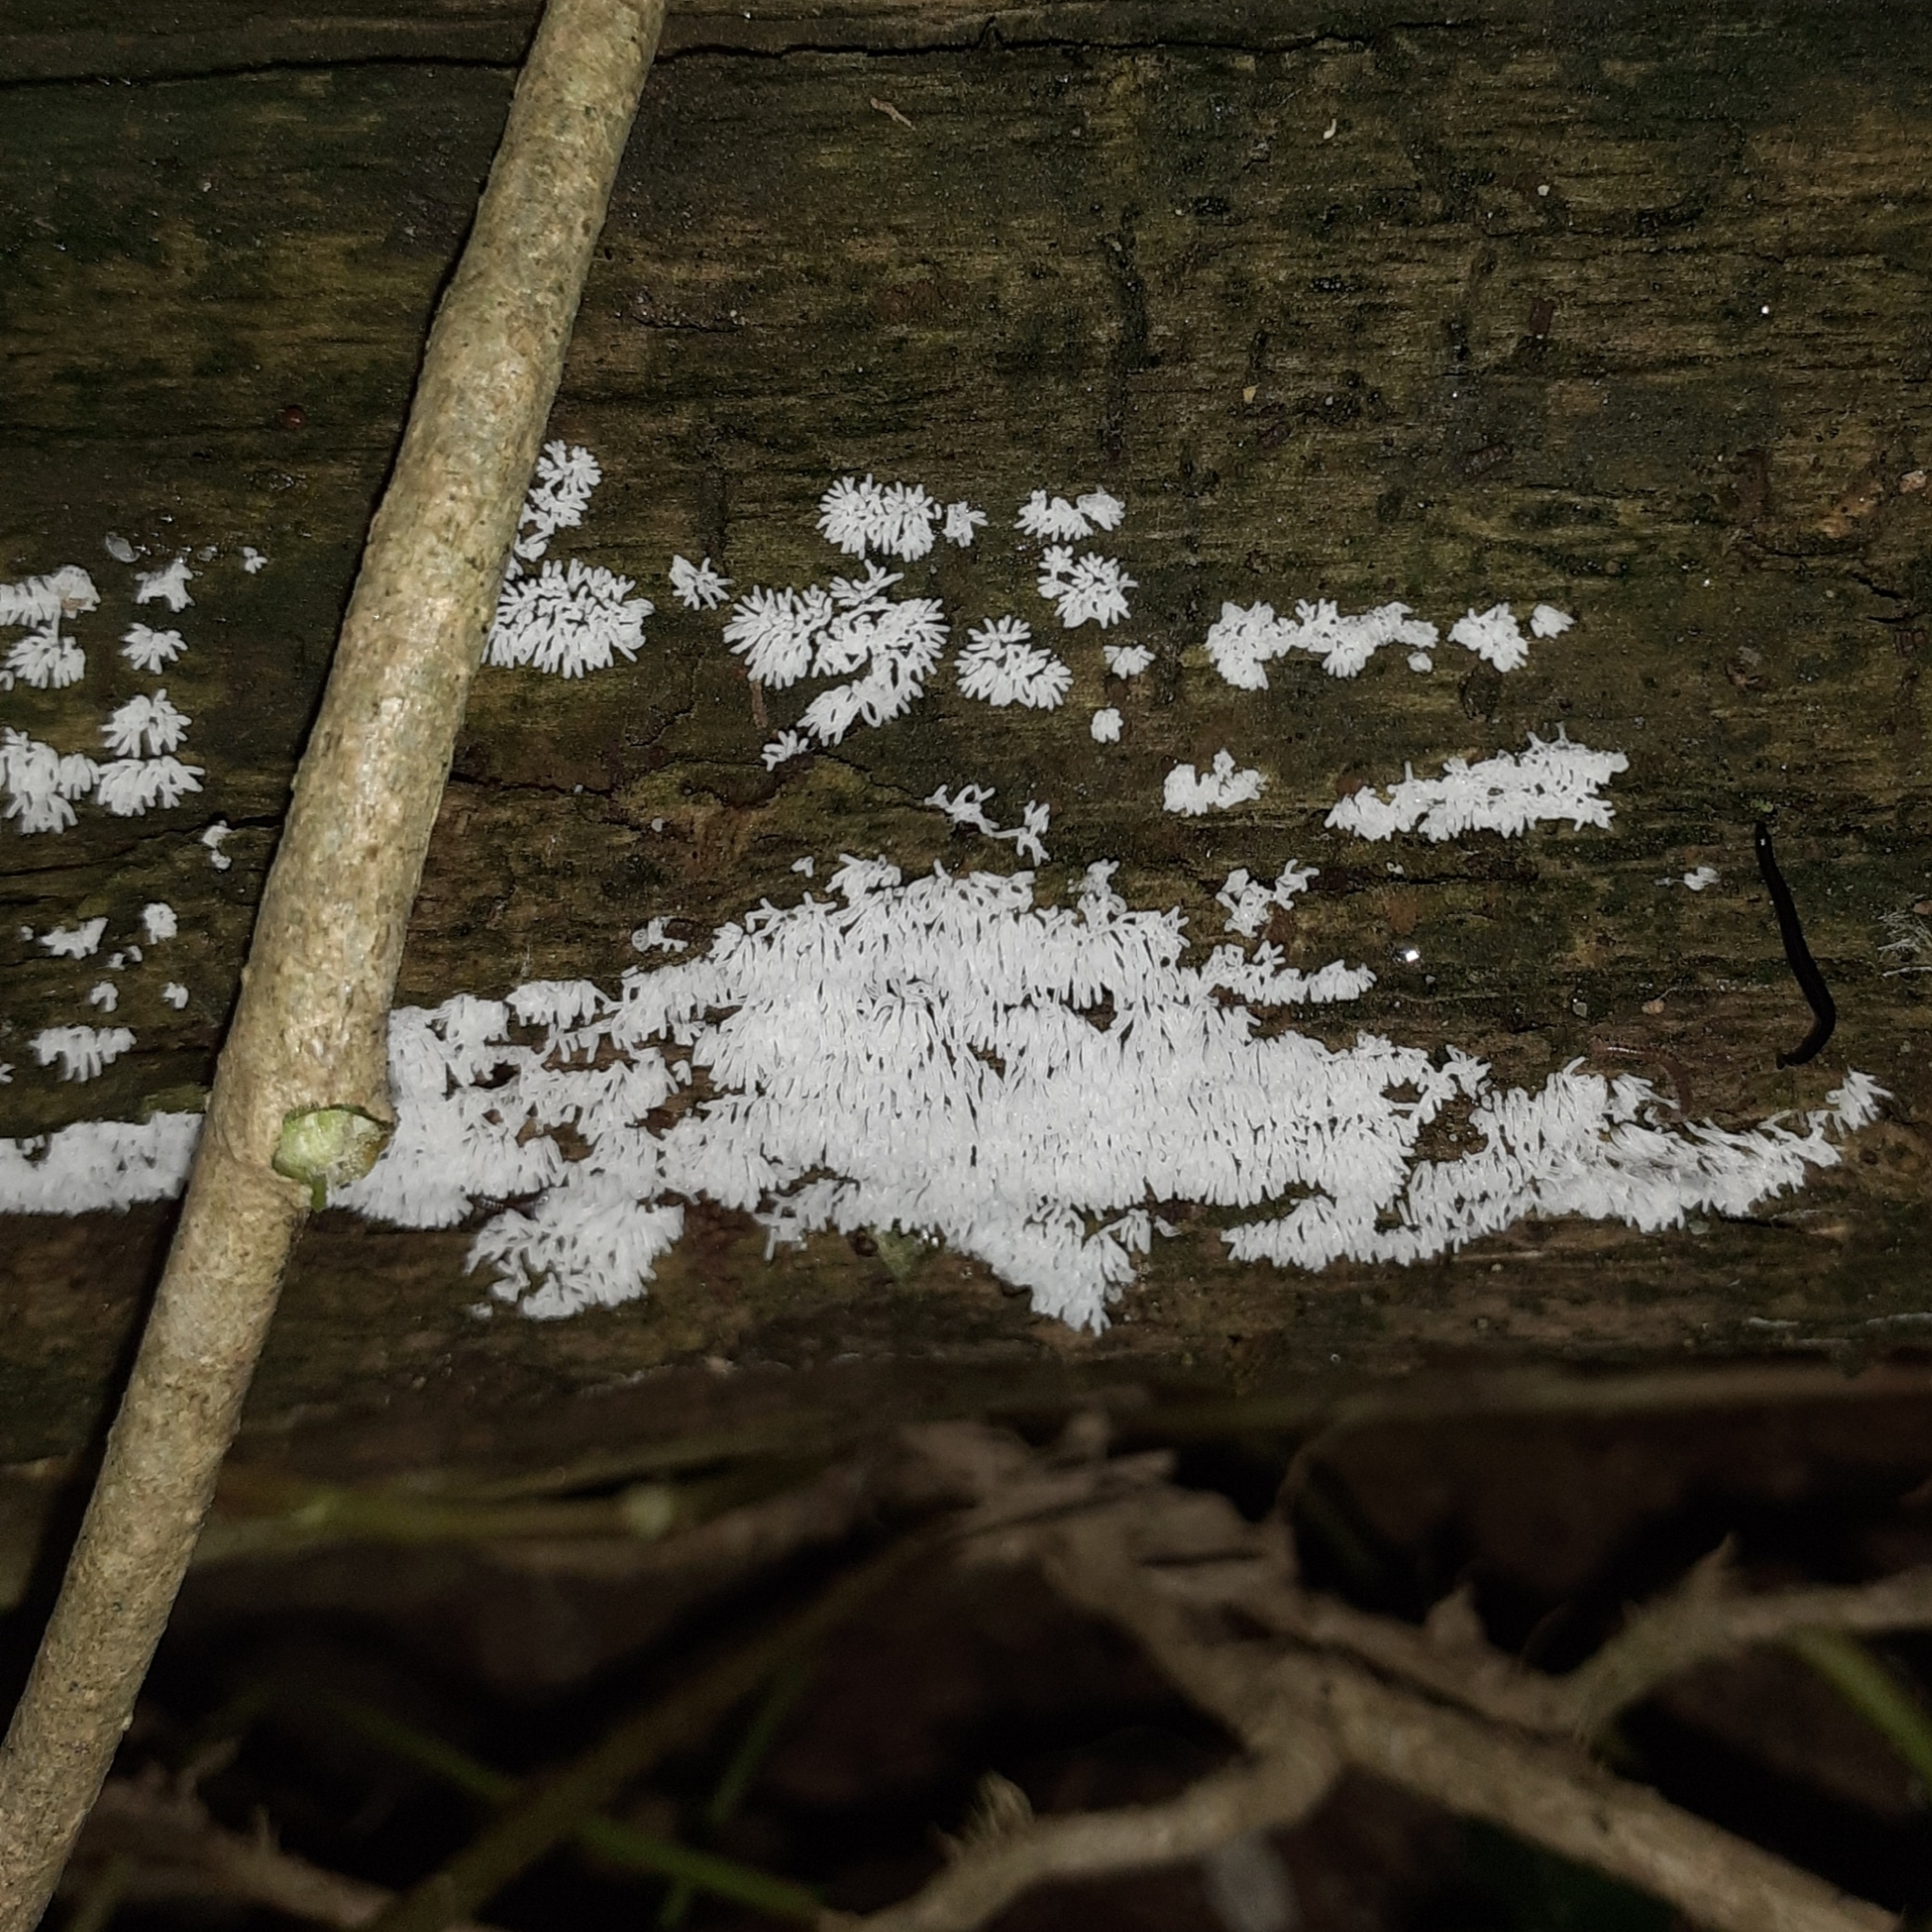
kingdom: Protozoa
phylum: Mycetozoa
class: Protosteliomycetes
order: Ceratiomyxales
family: Ceratiomyxaceae
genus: Ceratiomyxa
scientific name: Ceratiomyxa fruticulosa
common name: Honeycomb coral slime mold
